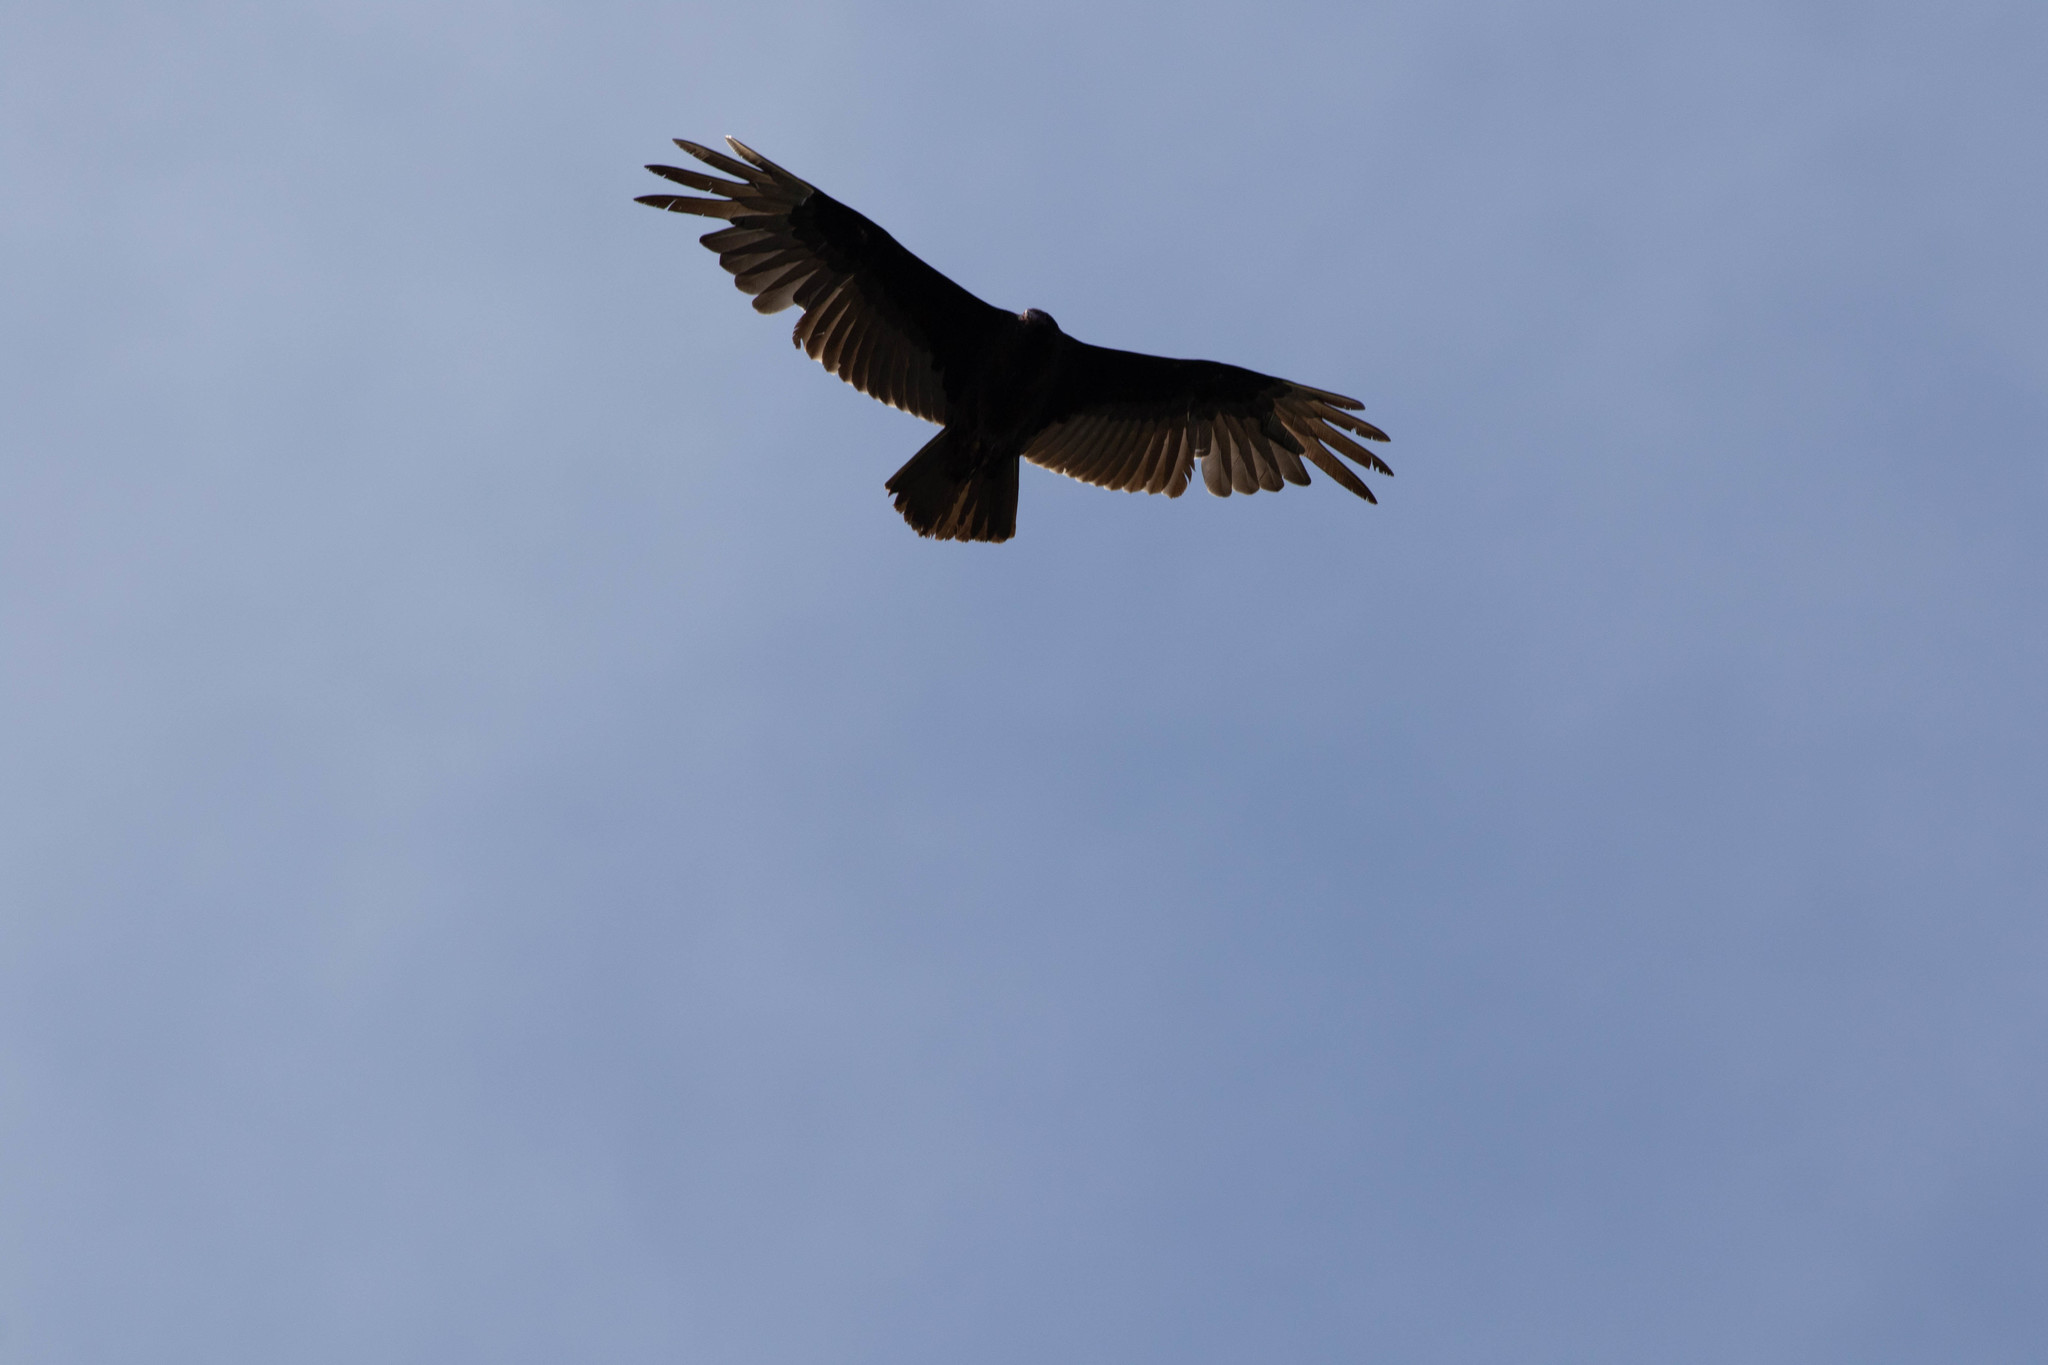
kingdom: Animalia
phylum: Chordata
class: Aves
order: Accipitriformes
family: Cathartidae
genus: Cathartes
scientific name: Cathartes aura
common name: Turkey vulture
